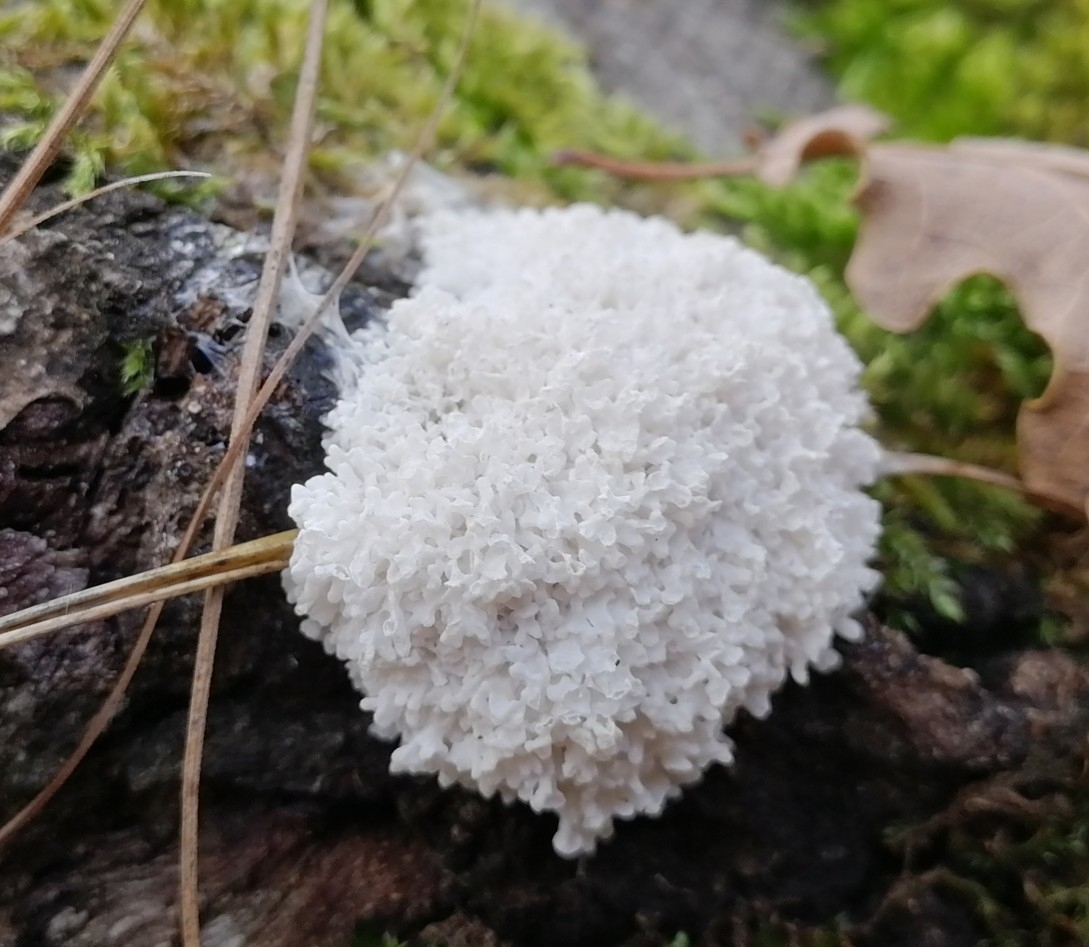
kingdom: Protozoa
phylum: Mycetozoa
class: Myxomycetes
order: Physarales
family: Physaraceae
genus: Didymium
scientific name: Didymium
